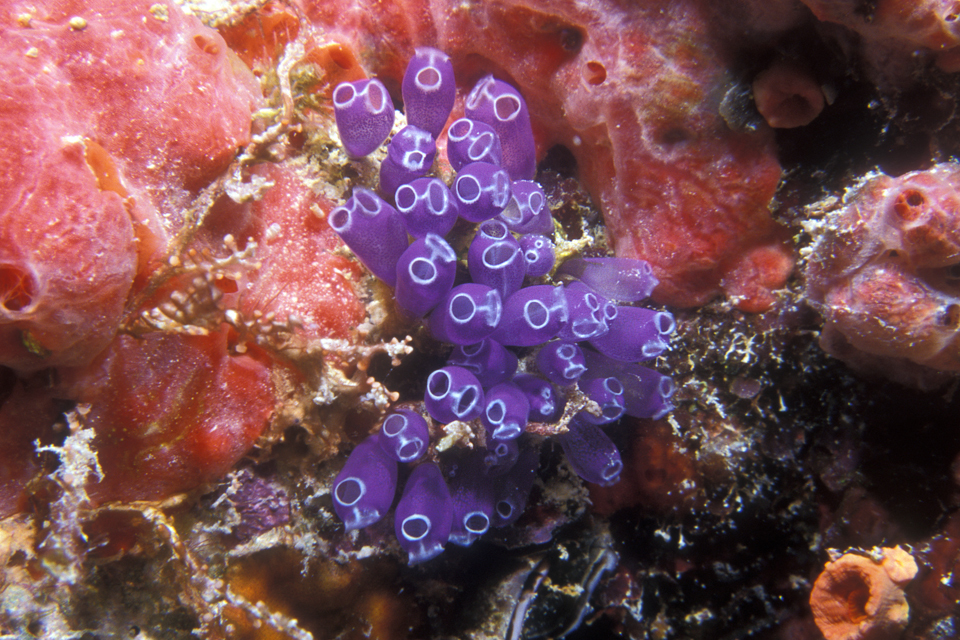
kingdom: Animalia
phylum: Chordata
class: Ascidiacea
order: Aplousobranchia
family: Clavelinidae
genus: Clavelina
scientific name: Clavelina puertosecensis
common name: Blue bell tunicate
